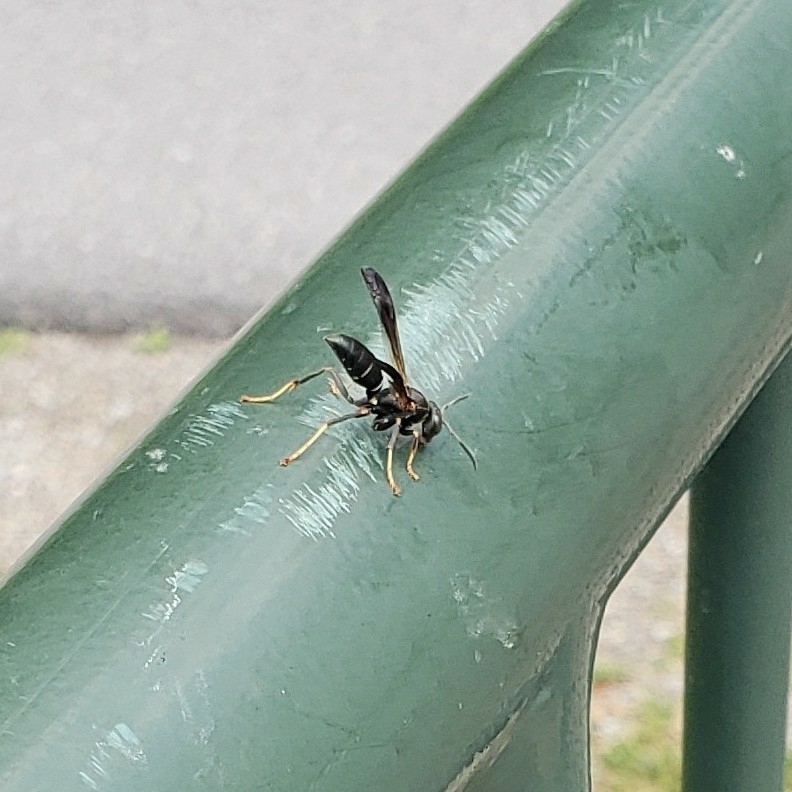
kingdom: Animalia
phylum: Arthropoda
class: Insecta
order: Hymenoptera
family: Eumenidae
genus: Polistes
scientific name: Polistes fuscatus
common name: Dark paper wasp
